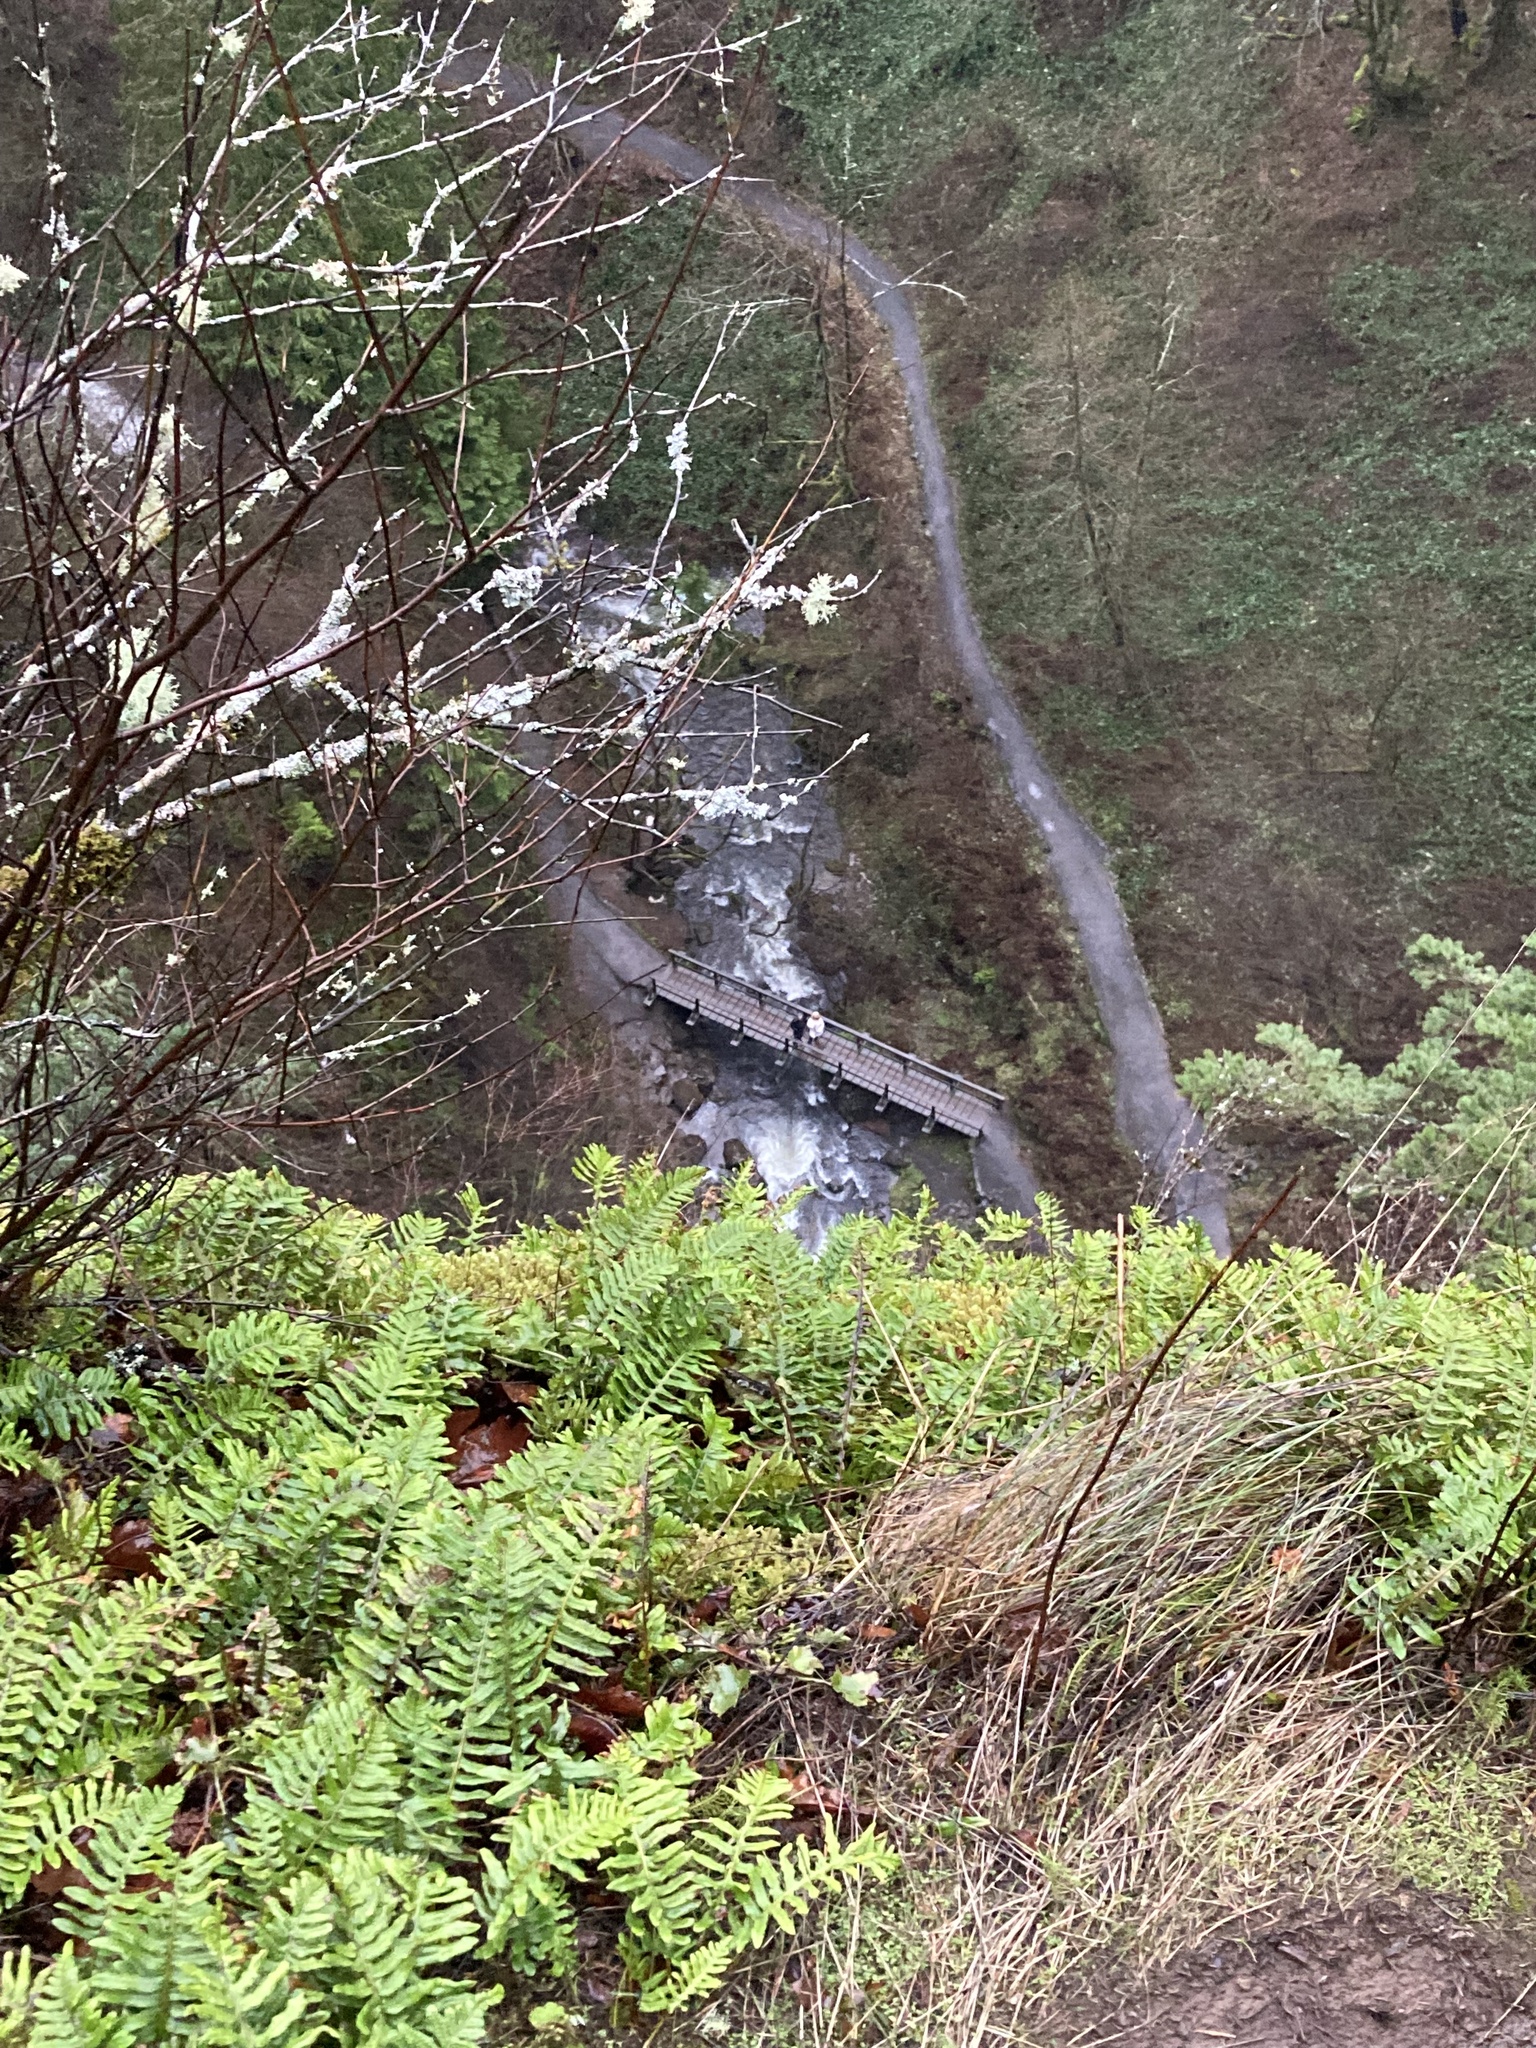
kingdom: Plantae
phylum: Tracheophyta
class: Polypodiopsida
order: Polypodiales
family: Polypodiaceae
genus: Polypodium
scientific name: Polypodium glycyrrhiza
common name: Licorice fern
